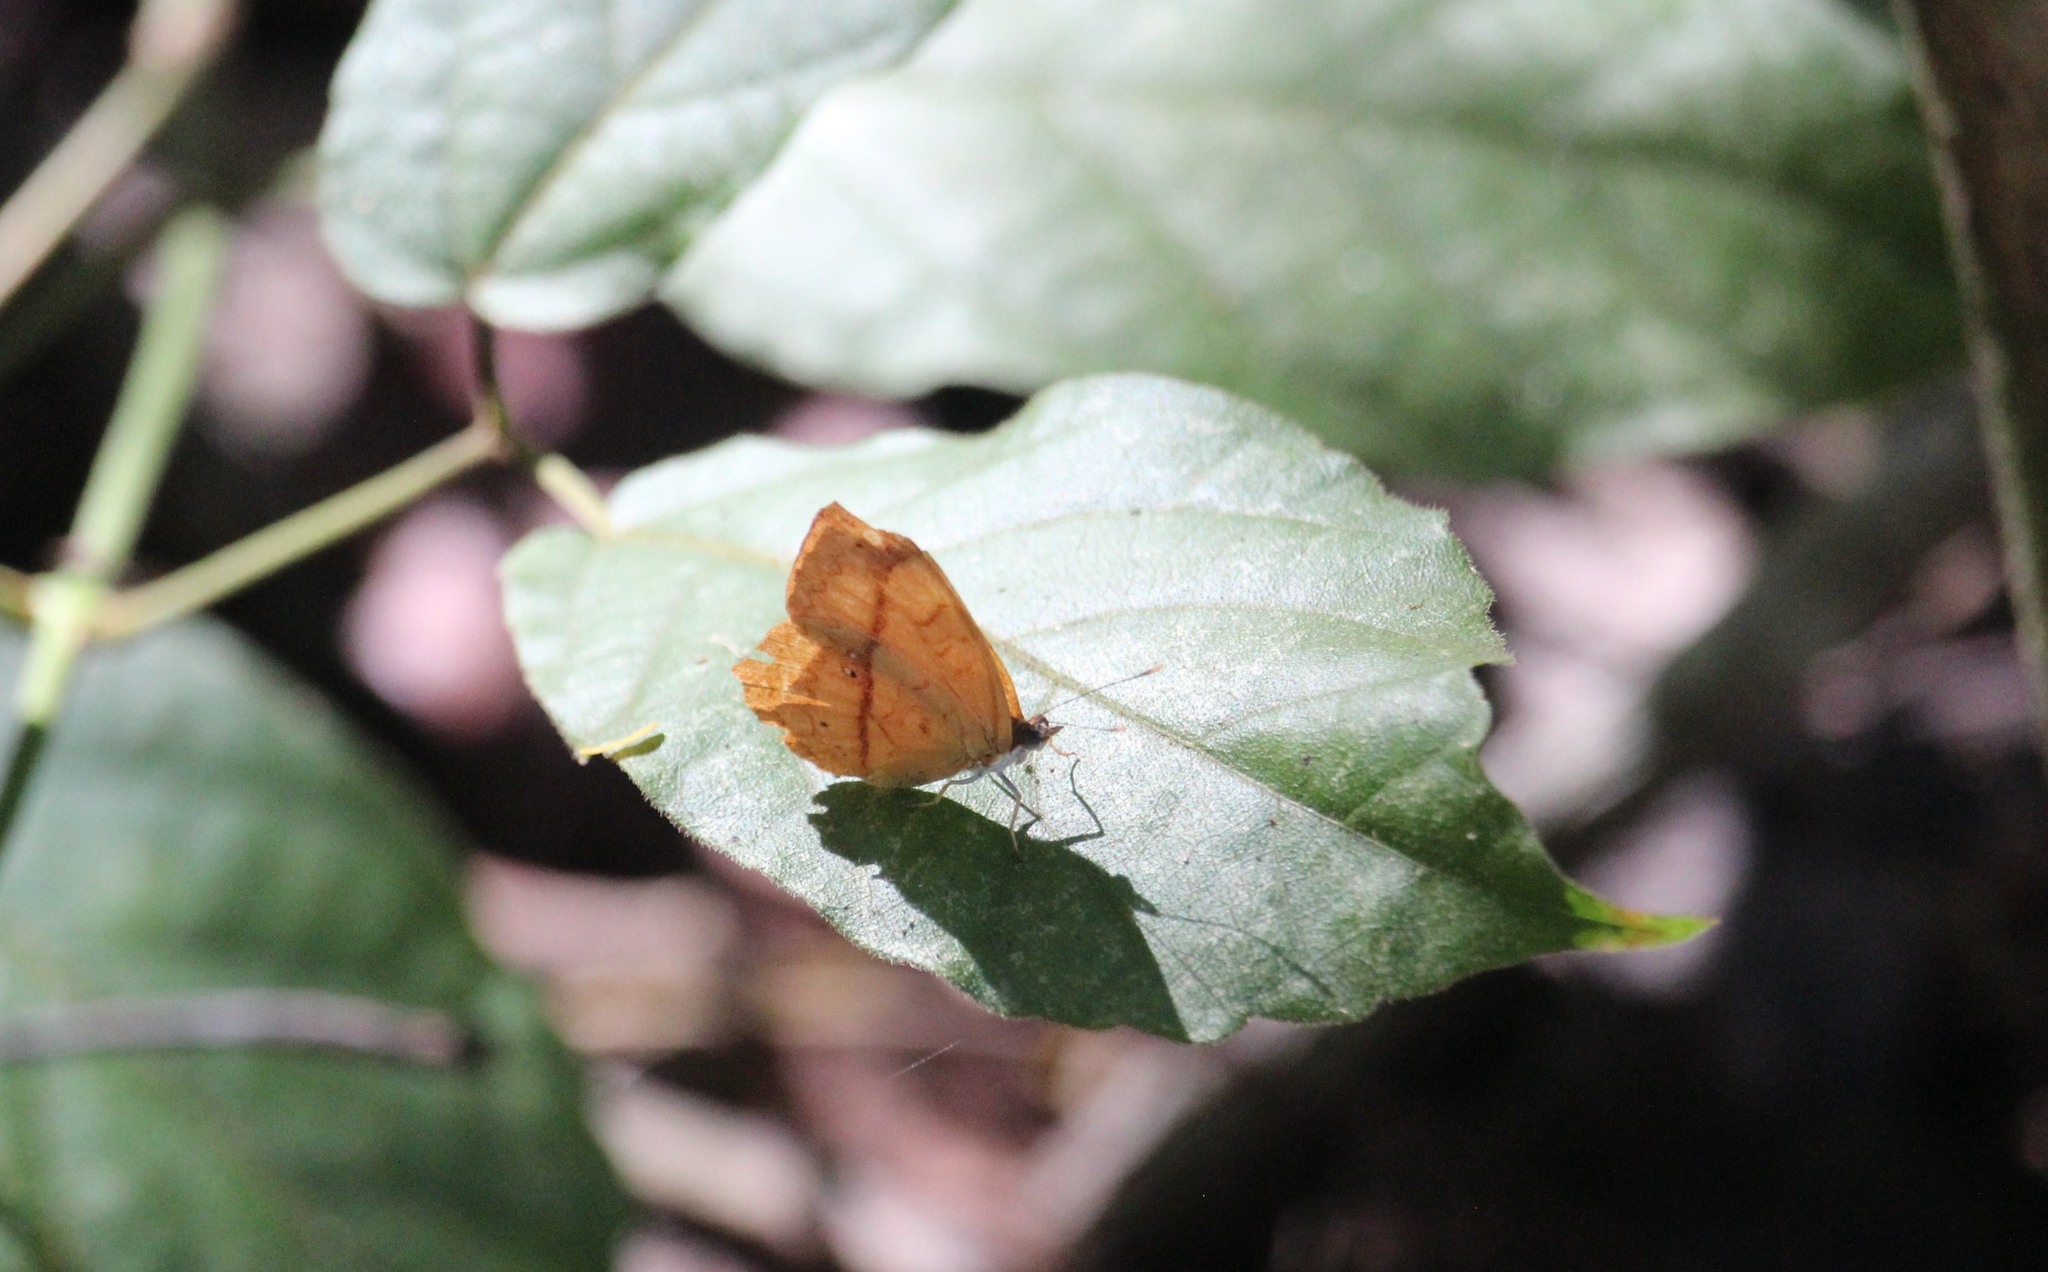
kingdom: Animalia
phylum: Arthropoda
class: Insecta
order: Lepidoptera
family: Nymphalidae
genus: Nica
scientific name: Nica flavilla
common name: Mandarin nica
